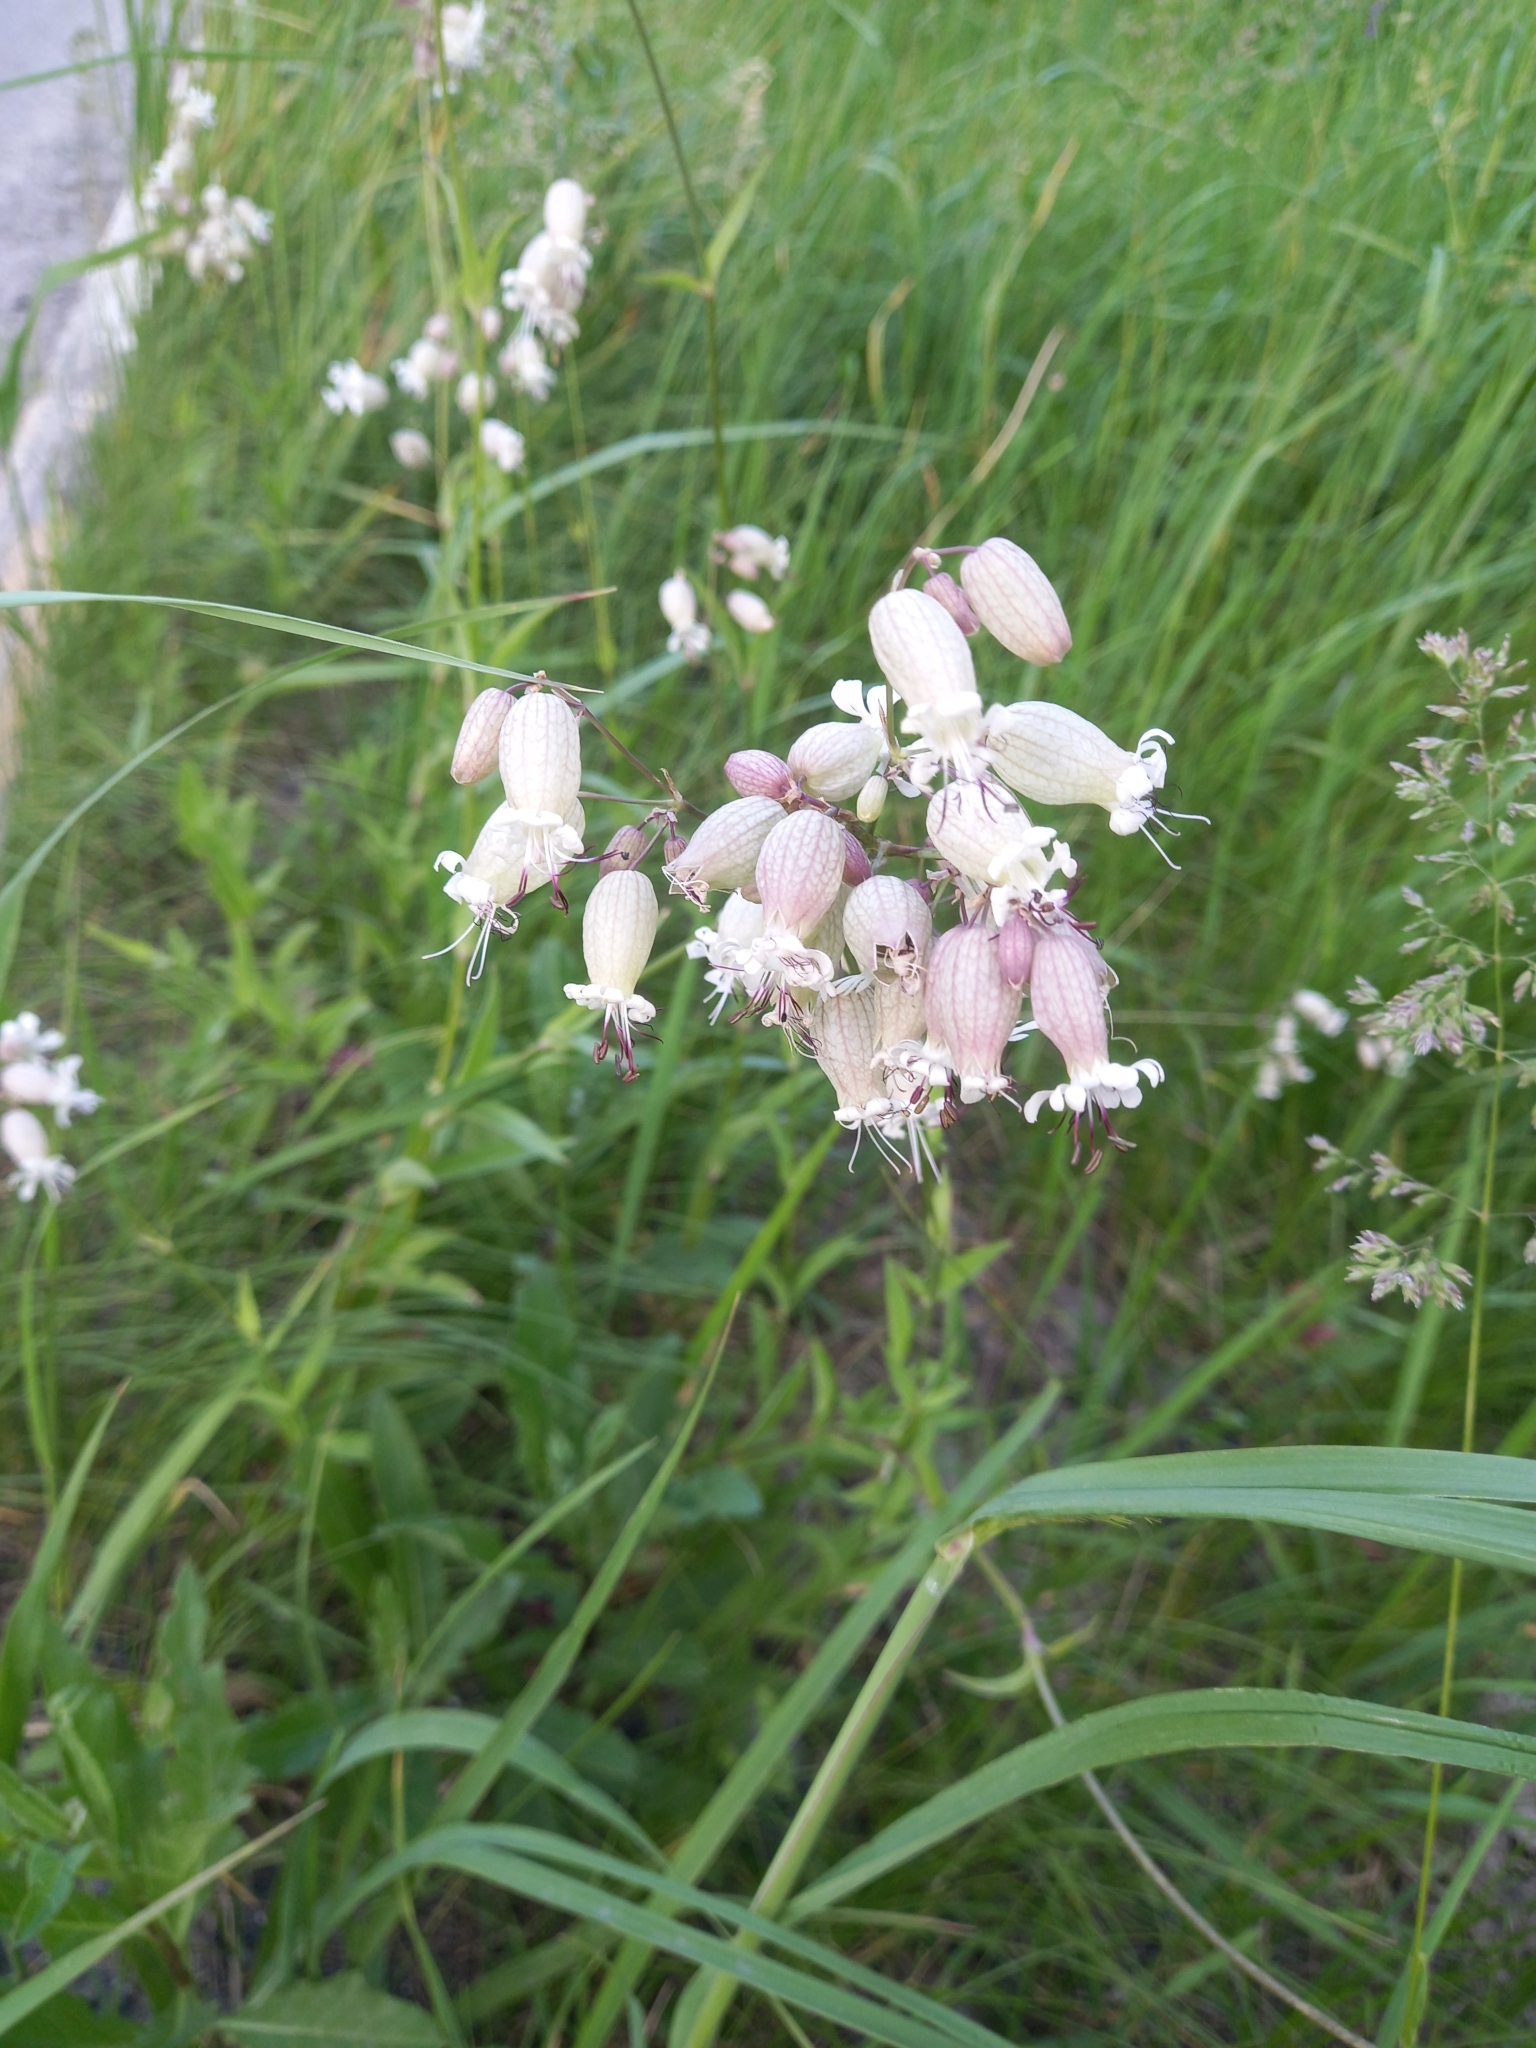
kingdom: Plantae
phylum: Tracheophyta
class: Magnoliopsida
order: Caryophyllales
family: Caryophyllaceae
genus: Silene
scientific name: Silene vulgaris
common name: Bladder campion
